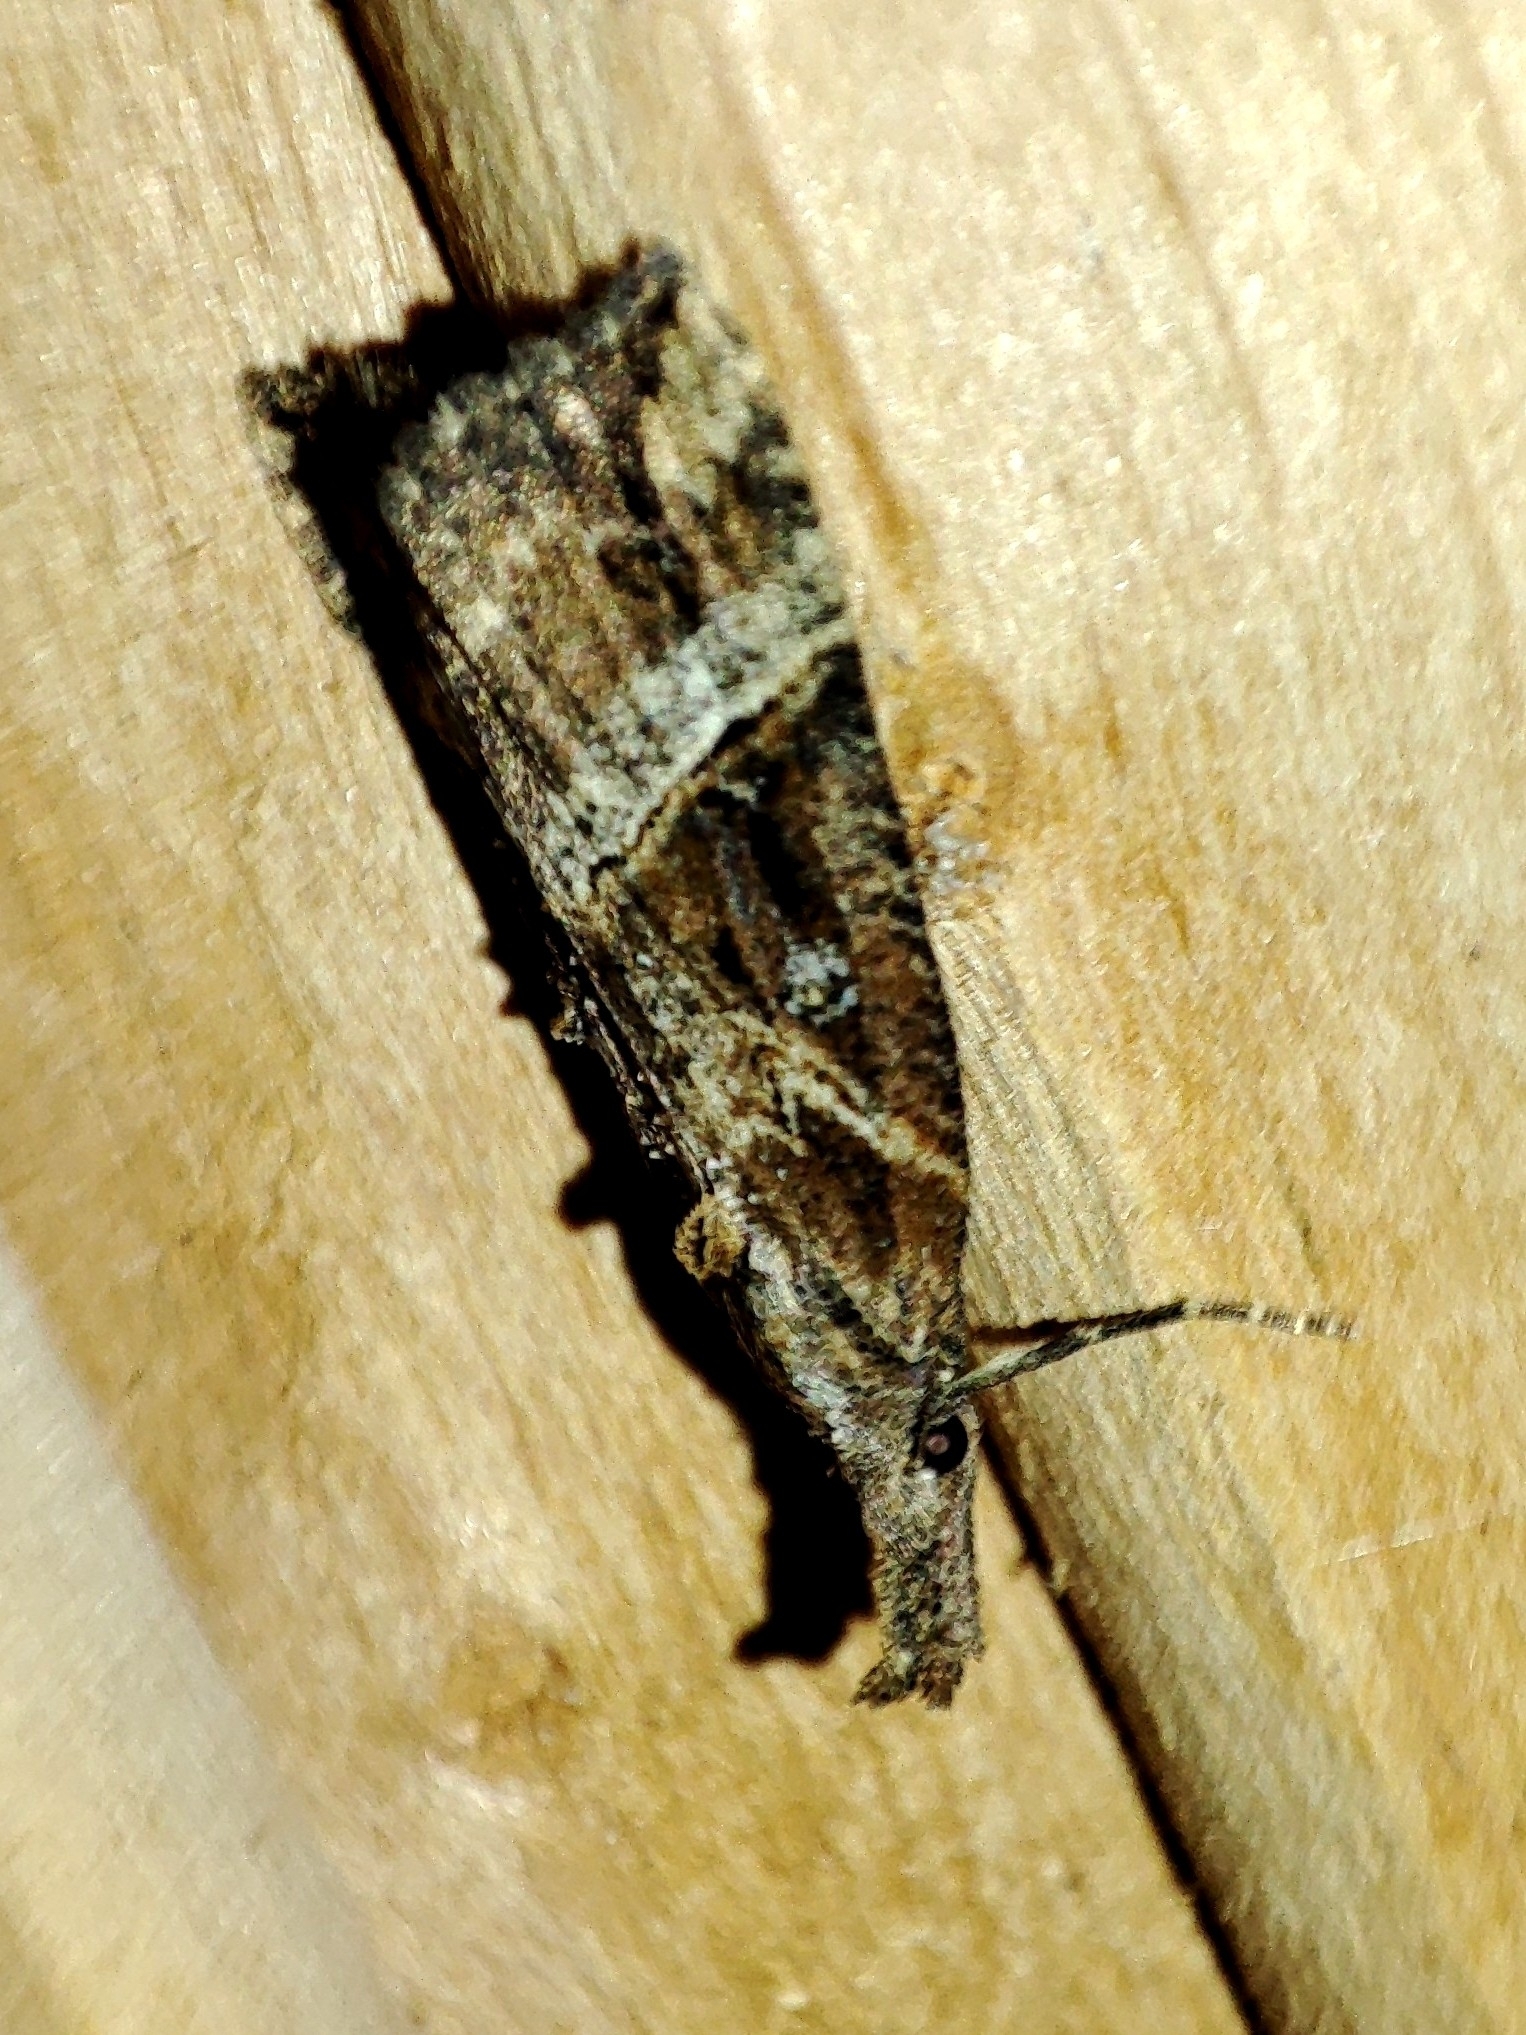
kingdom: Animalia
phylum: Arthropoda
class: Insecta
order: Lepidoptera
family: Erebidae
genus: Hypena
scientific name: Hypena rostralis
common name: Buttoned snout
